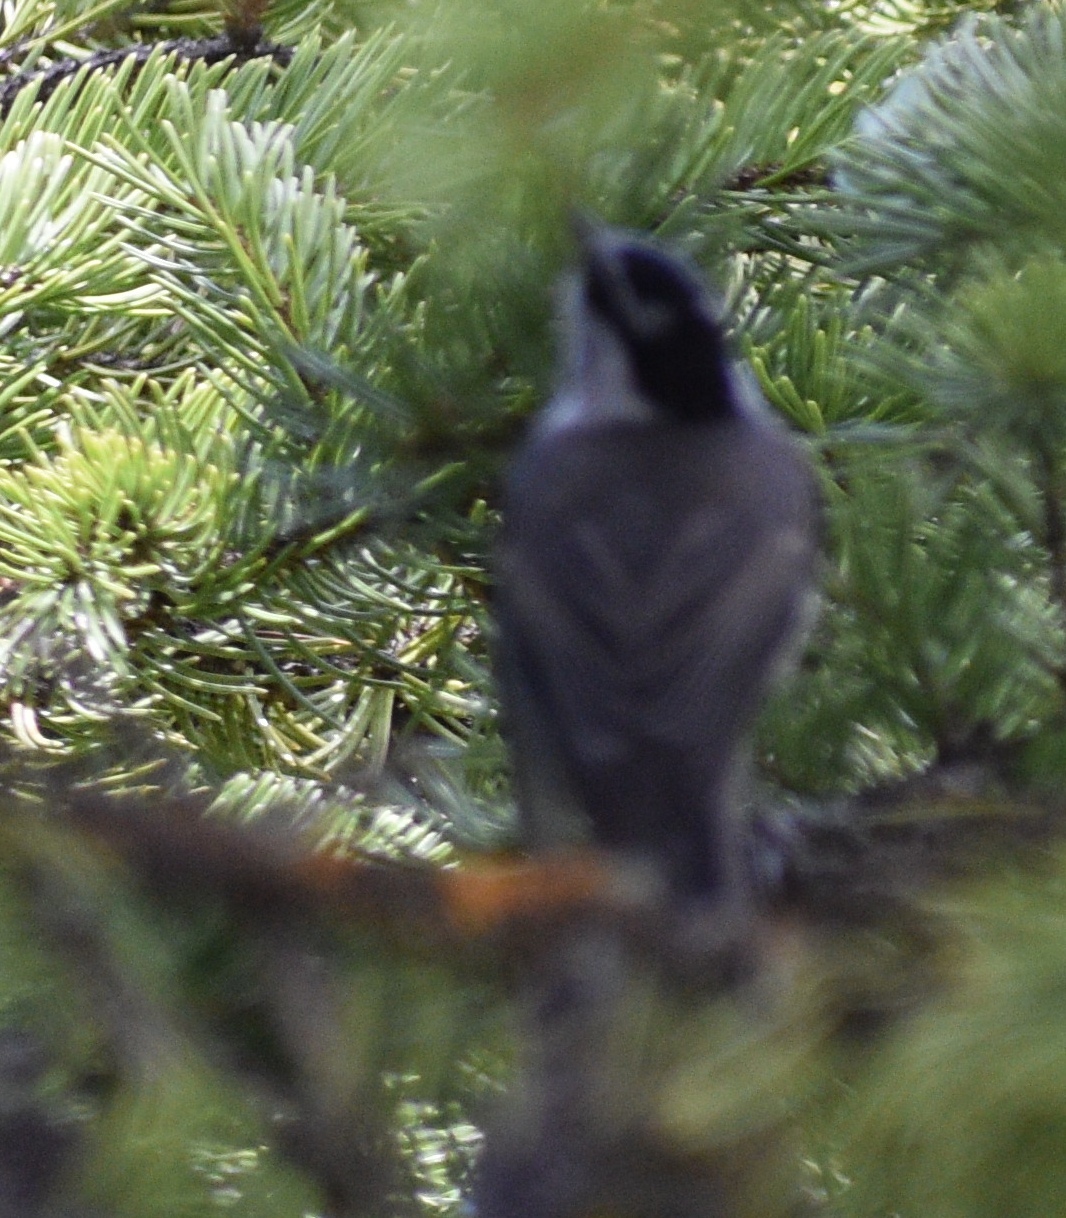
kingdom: Animalia
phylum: Chordata
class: Aves
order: Passeriformes
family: Paridae
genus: Poecile
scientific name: Poecile gambeli
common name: Mountain chickadee
